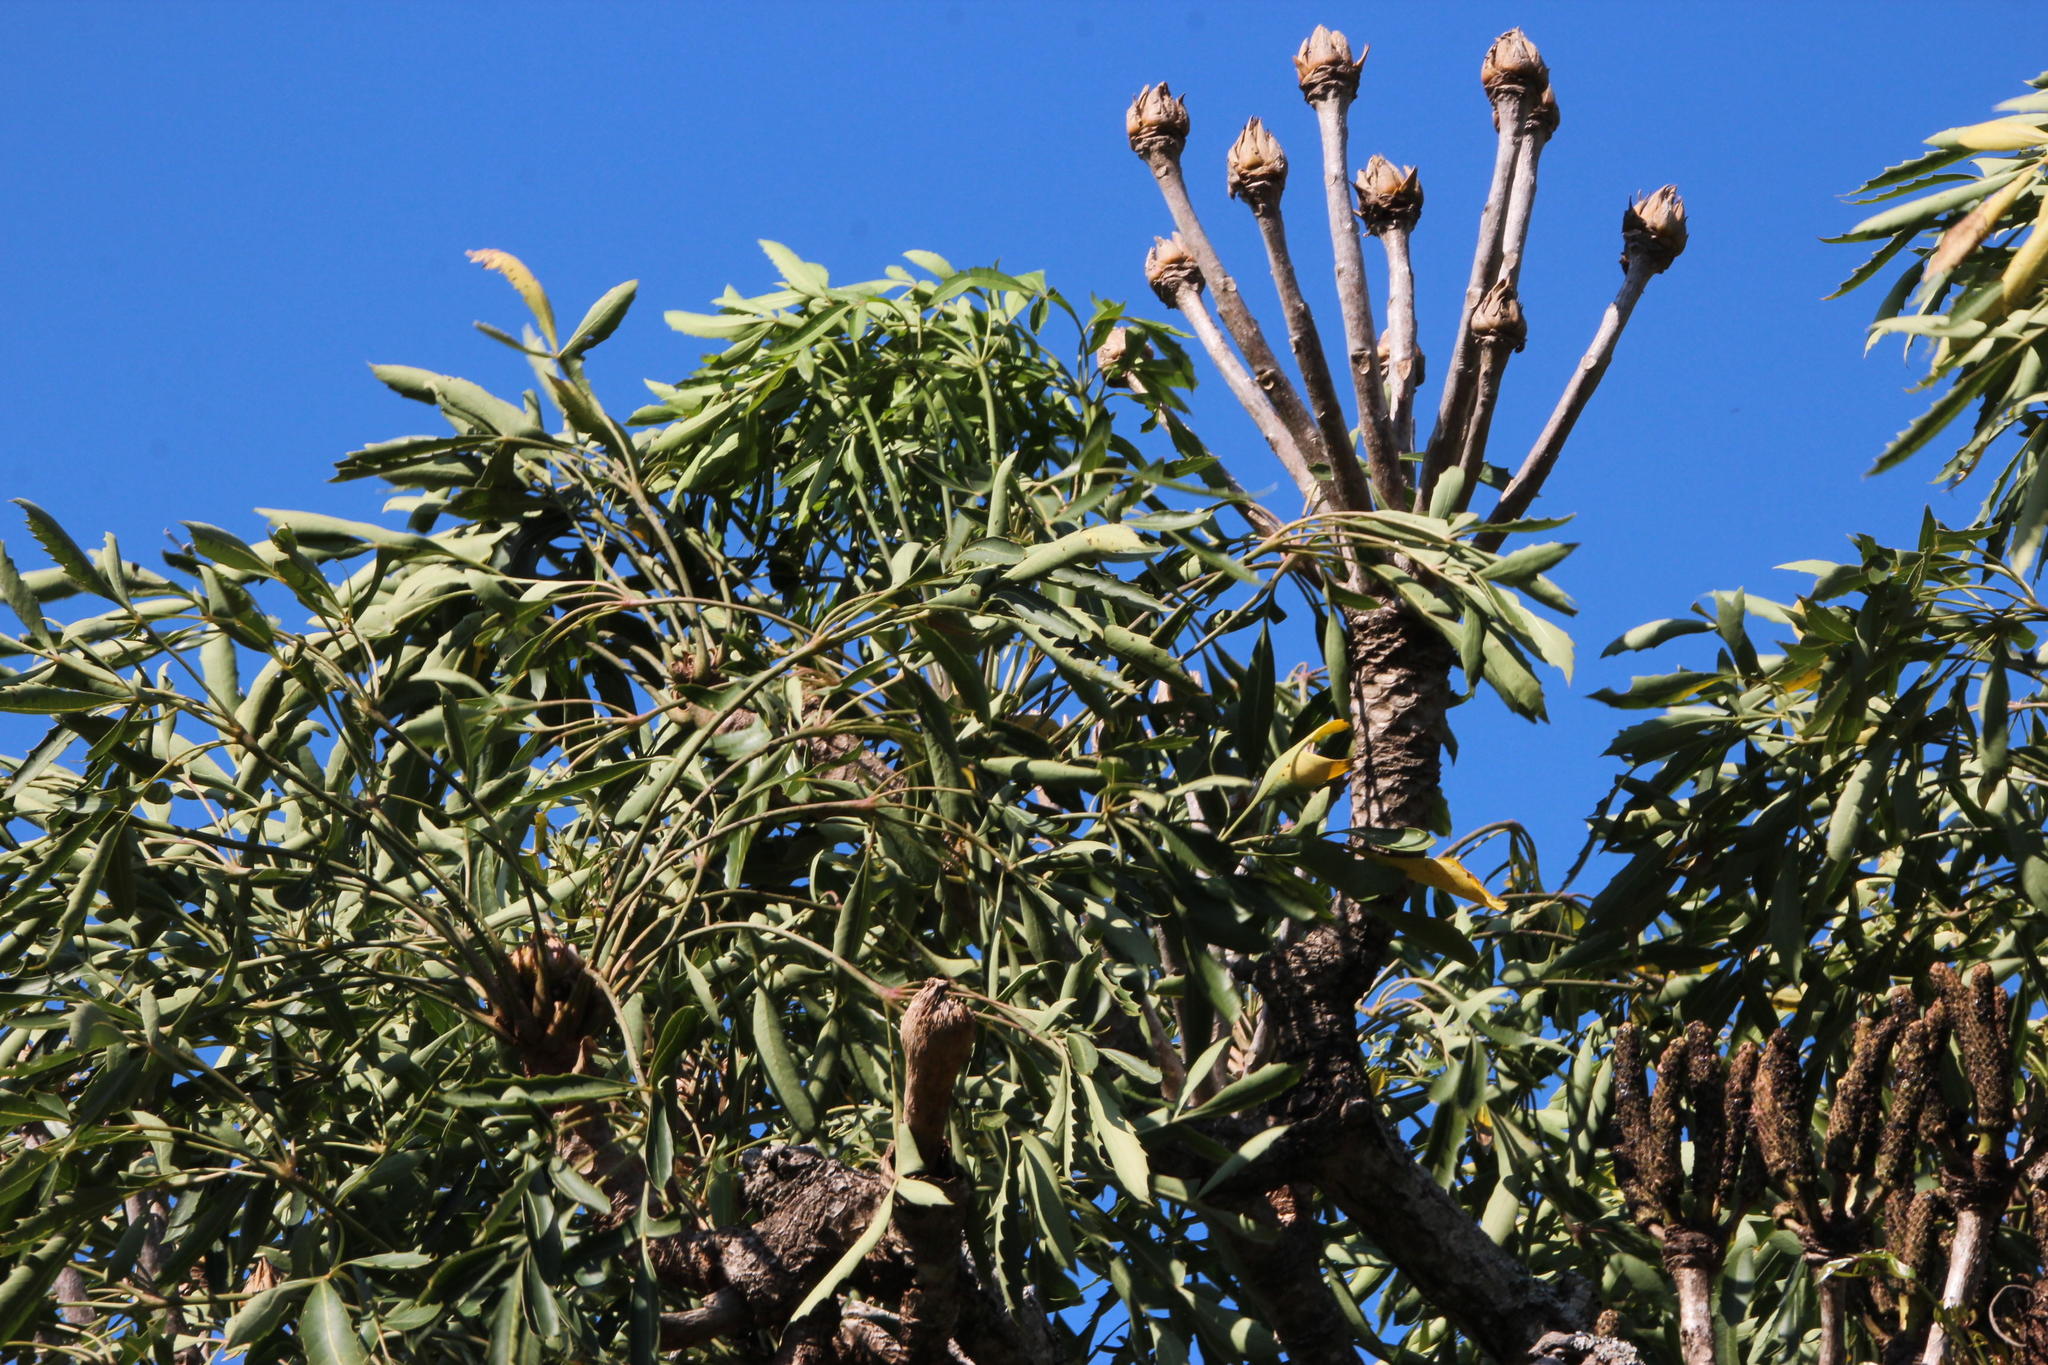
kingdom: Plantae
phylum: Tracheophyta
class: Magnoliopsida
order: Apiales
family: Araliaceae
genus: Cussonia
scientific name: Cussonia spicata
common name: Common cabbagetree
